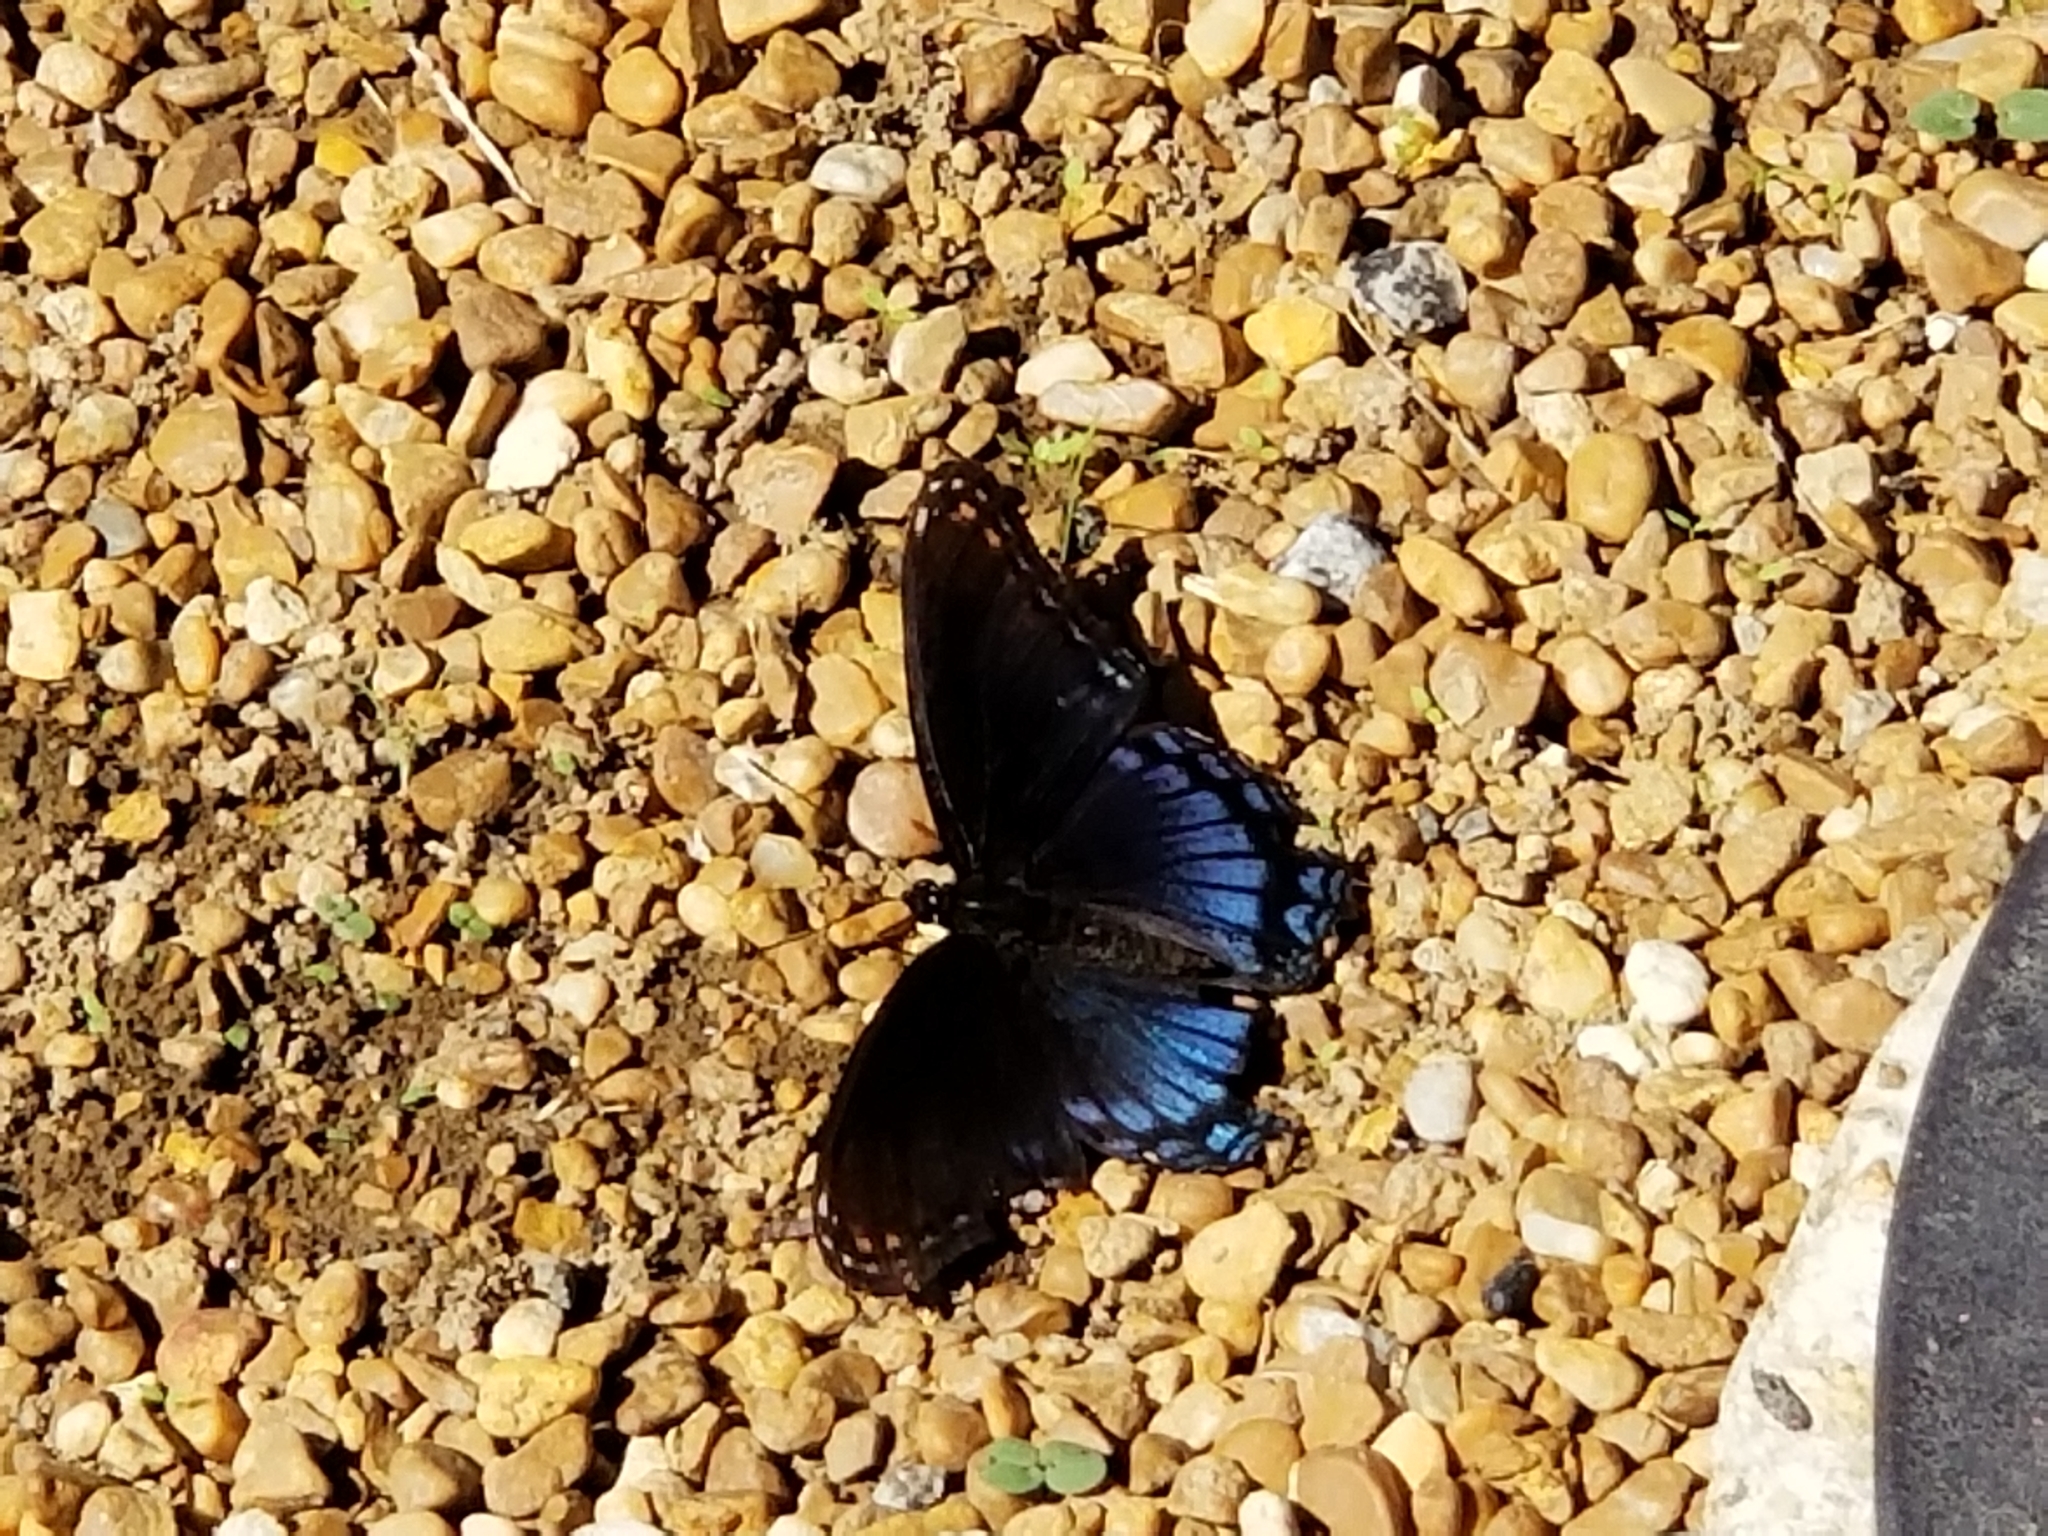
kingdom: Animalia
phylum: Arthropoda
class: Insecta
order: Lepidoptera
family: Nymphalidae
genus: Limenitis
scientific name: Limenitis arthemis
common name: Red-spotted admiral
